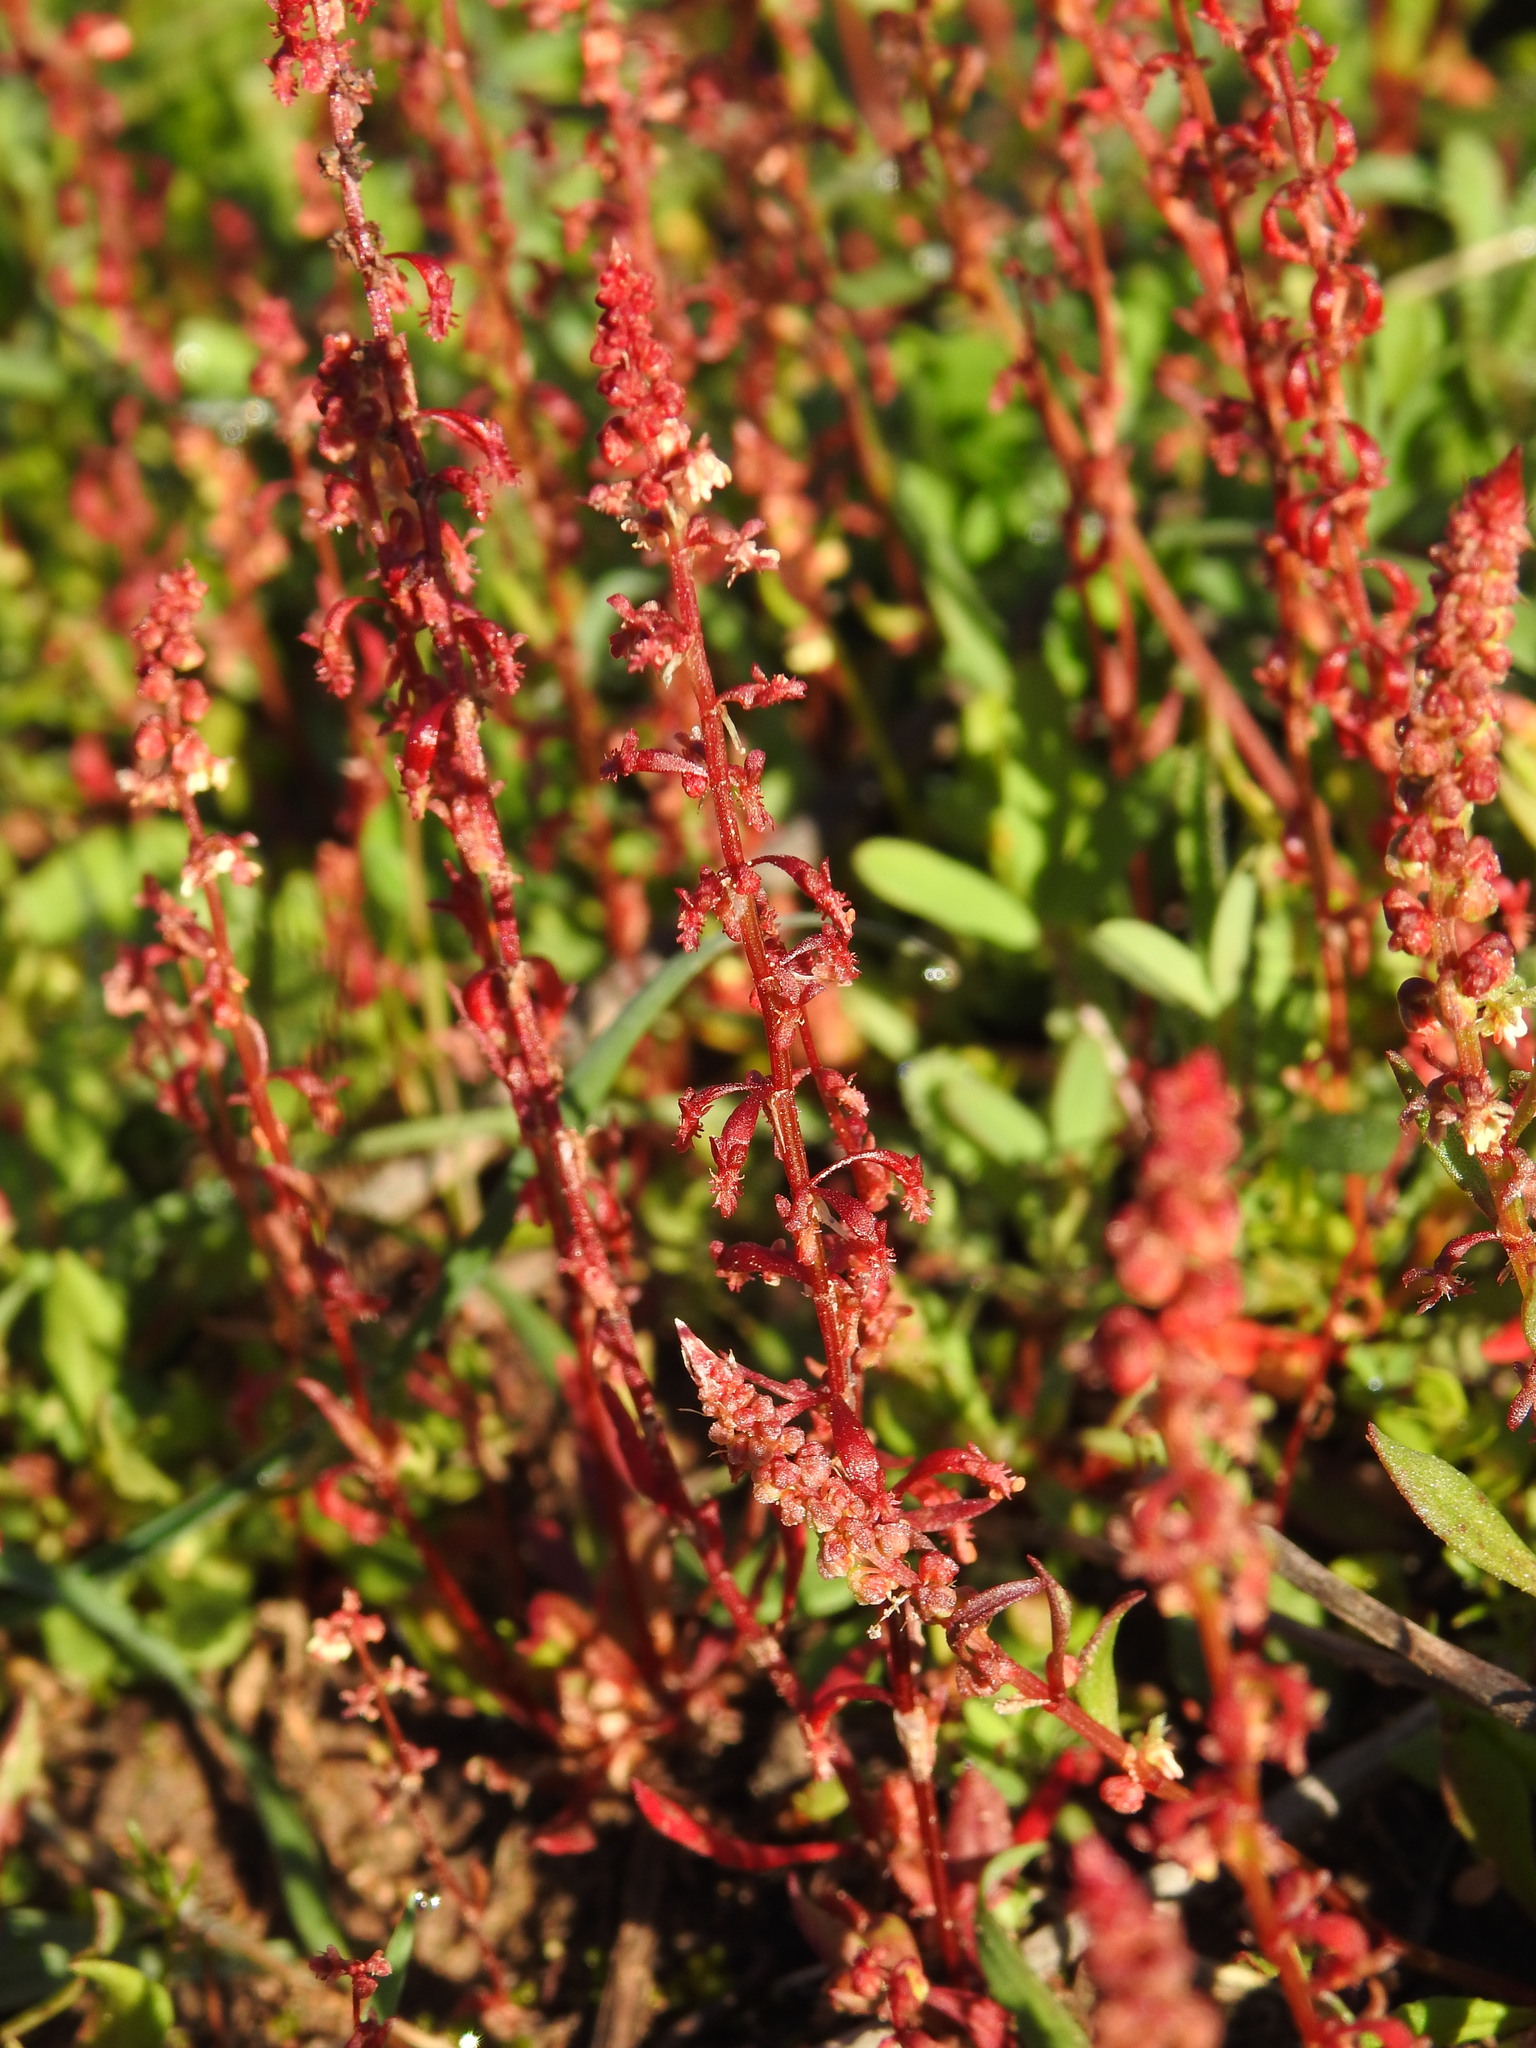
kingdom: Plantae
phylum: Tracheophyta
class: Magnoliopsida
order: Caryophyllales
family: Polygonaceae
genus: Rumex
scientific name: Rumex bucephalophorus
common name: Red dock
